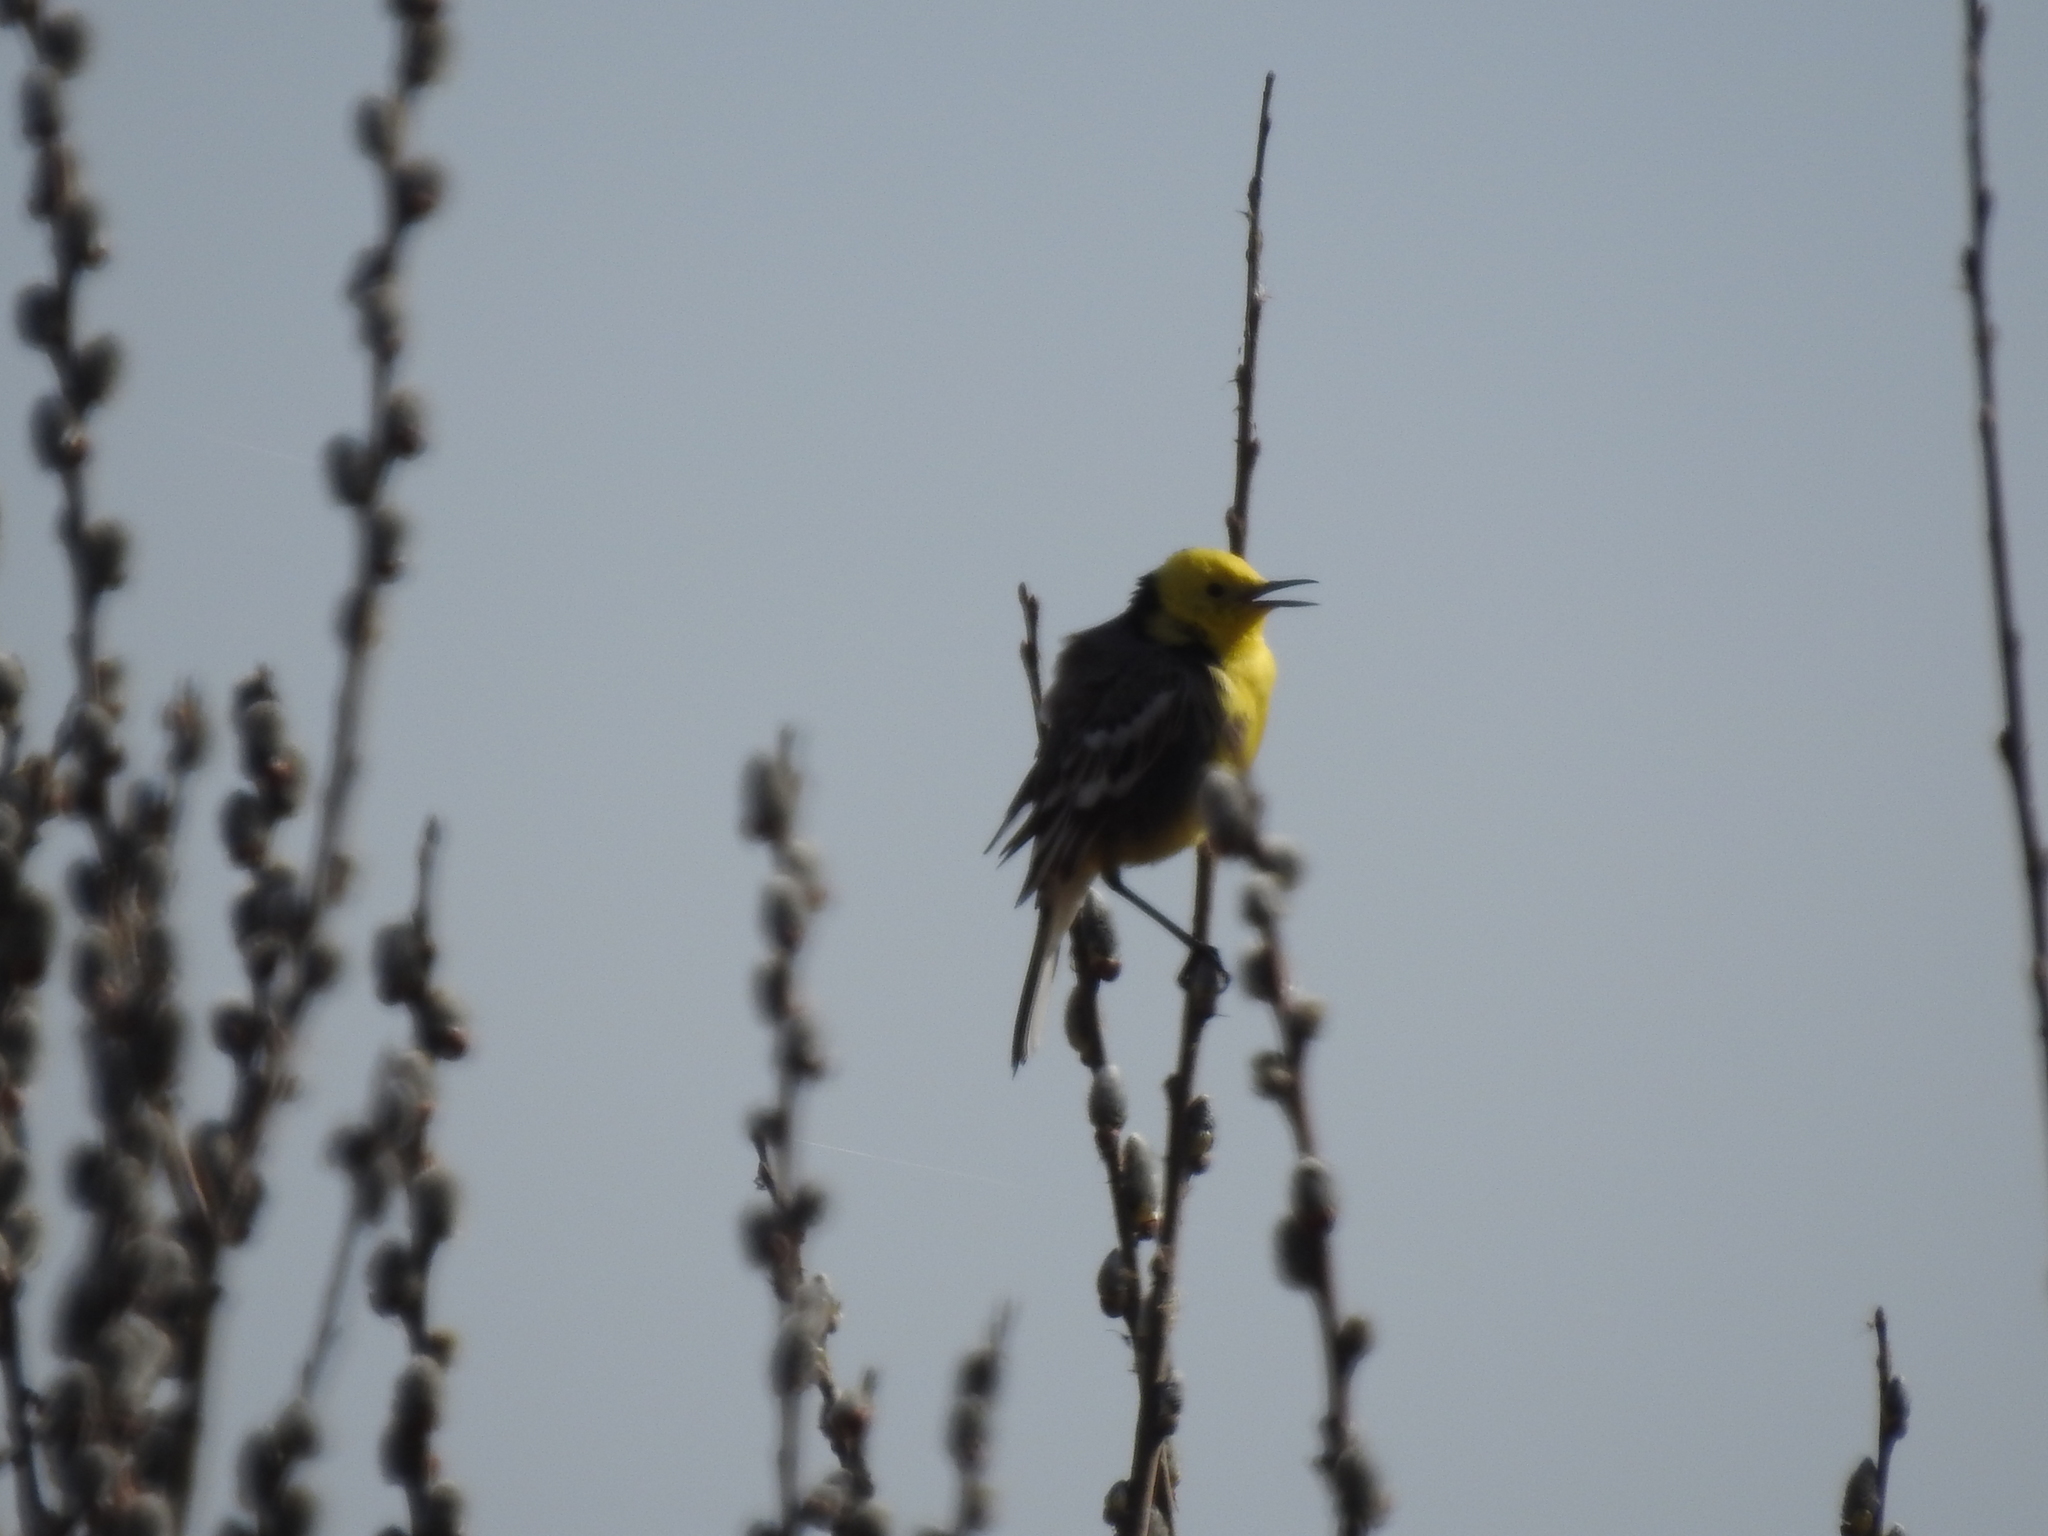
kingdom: Animalia
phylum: Chordata
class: Aves
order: Passeriformes
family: Motacillidae
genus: Motacilla
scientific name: Motacilla citreola
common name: Citrine wagtail
